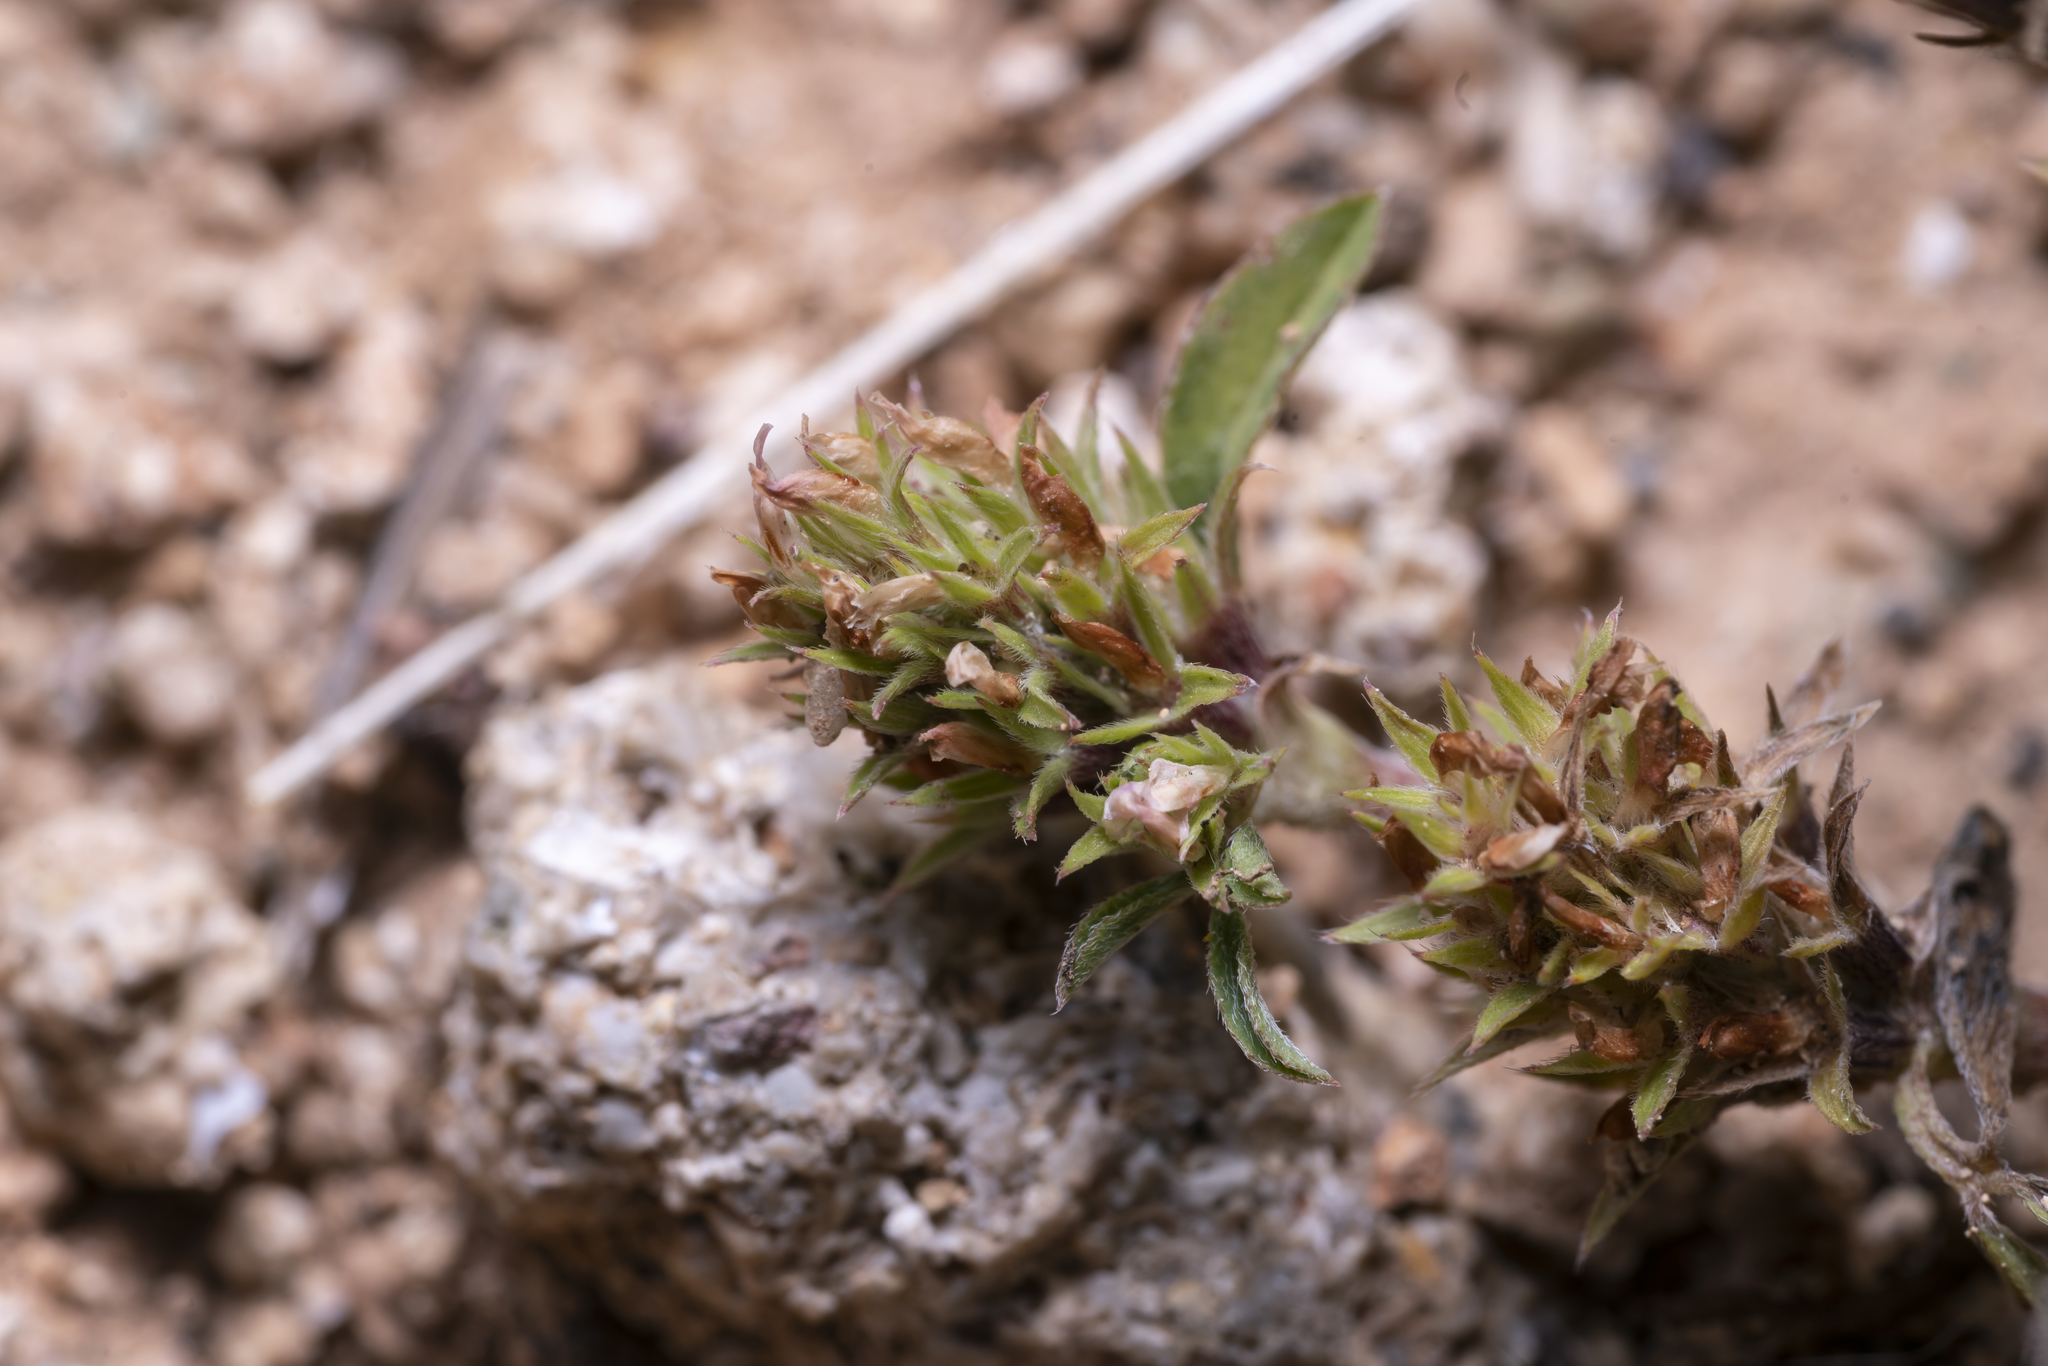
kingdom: Plantae
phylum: Tracheophyta
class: Magnoliopsida
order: Fabales
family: Fabaceae
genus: Trifolium
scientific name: Trifolium scabrum
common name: Rough clover
